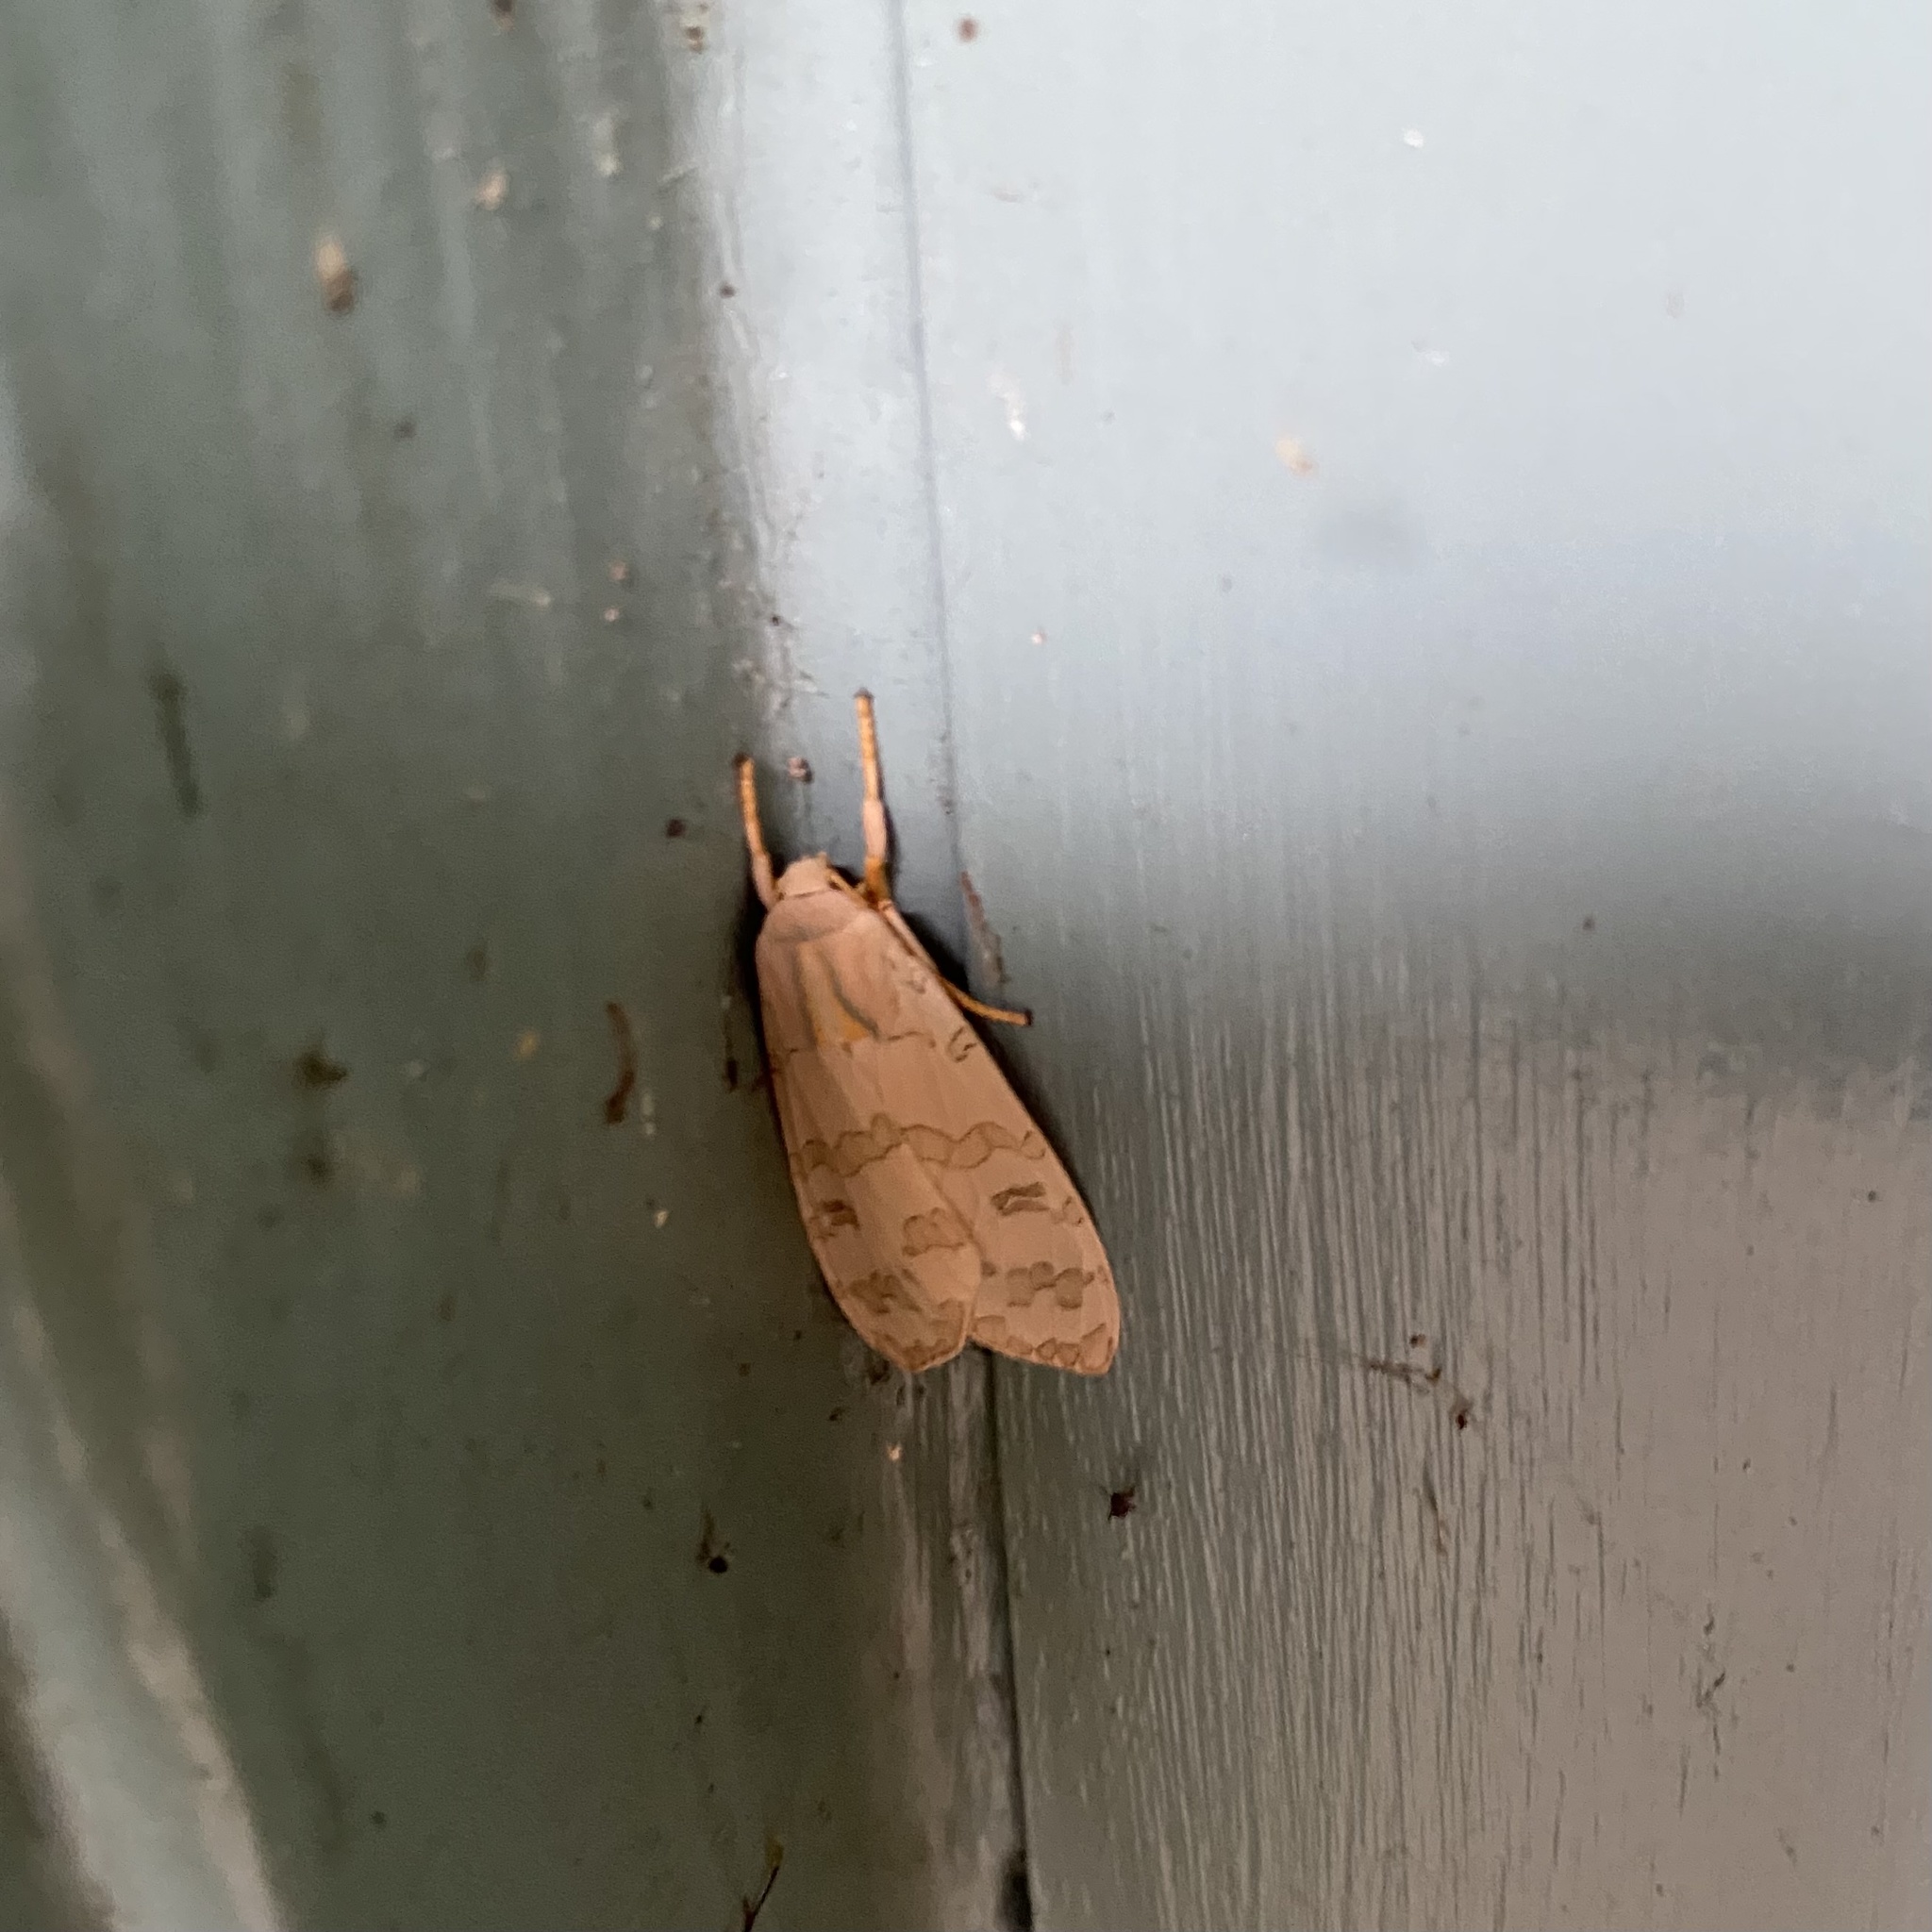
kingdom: Animalia
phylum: Arthropoda
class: Insecta
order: Lepidoptera
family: Erebidae
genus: Halysidota
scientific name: Halysidota
